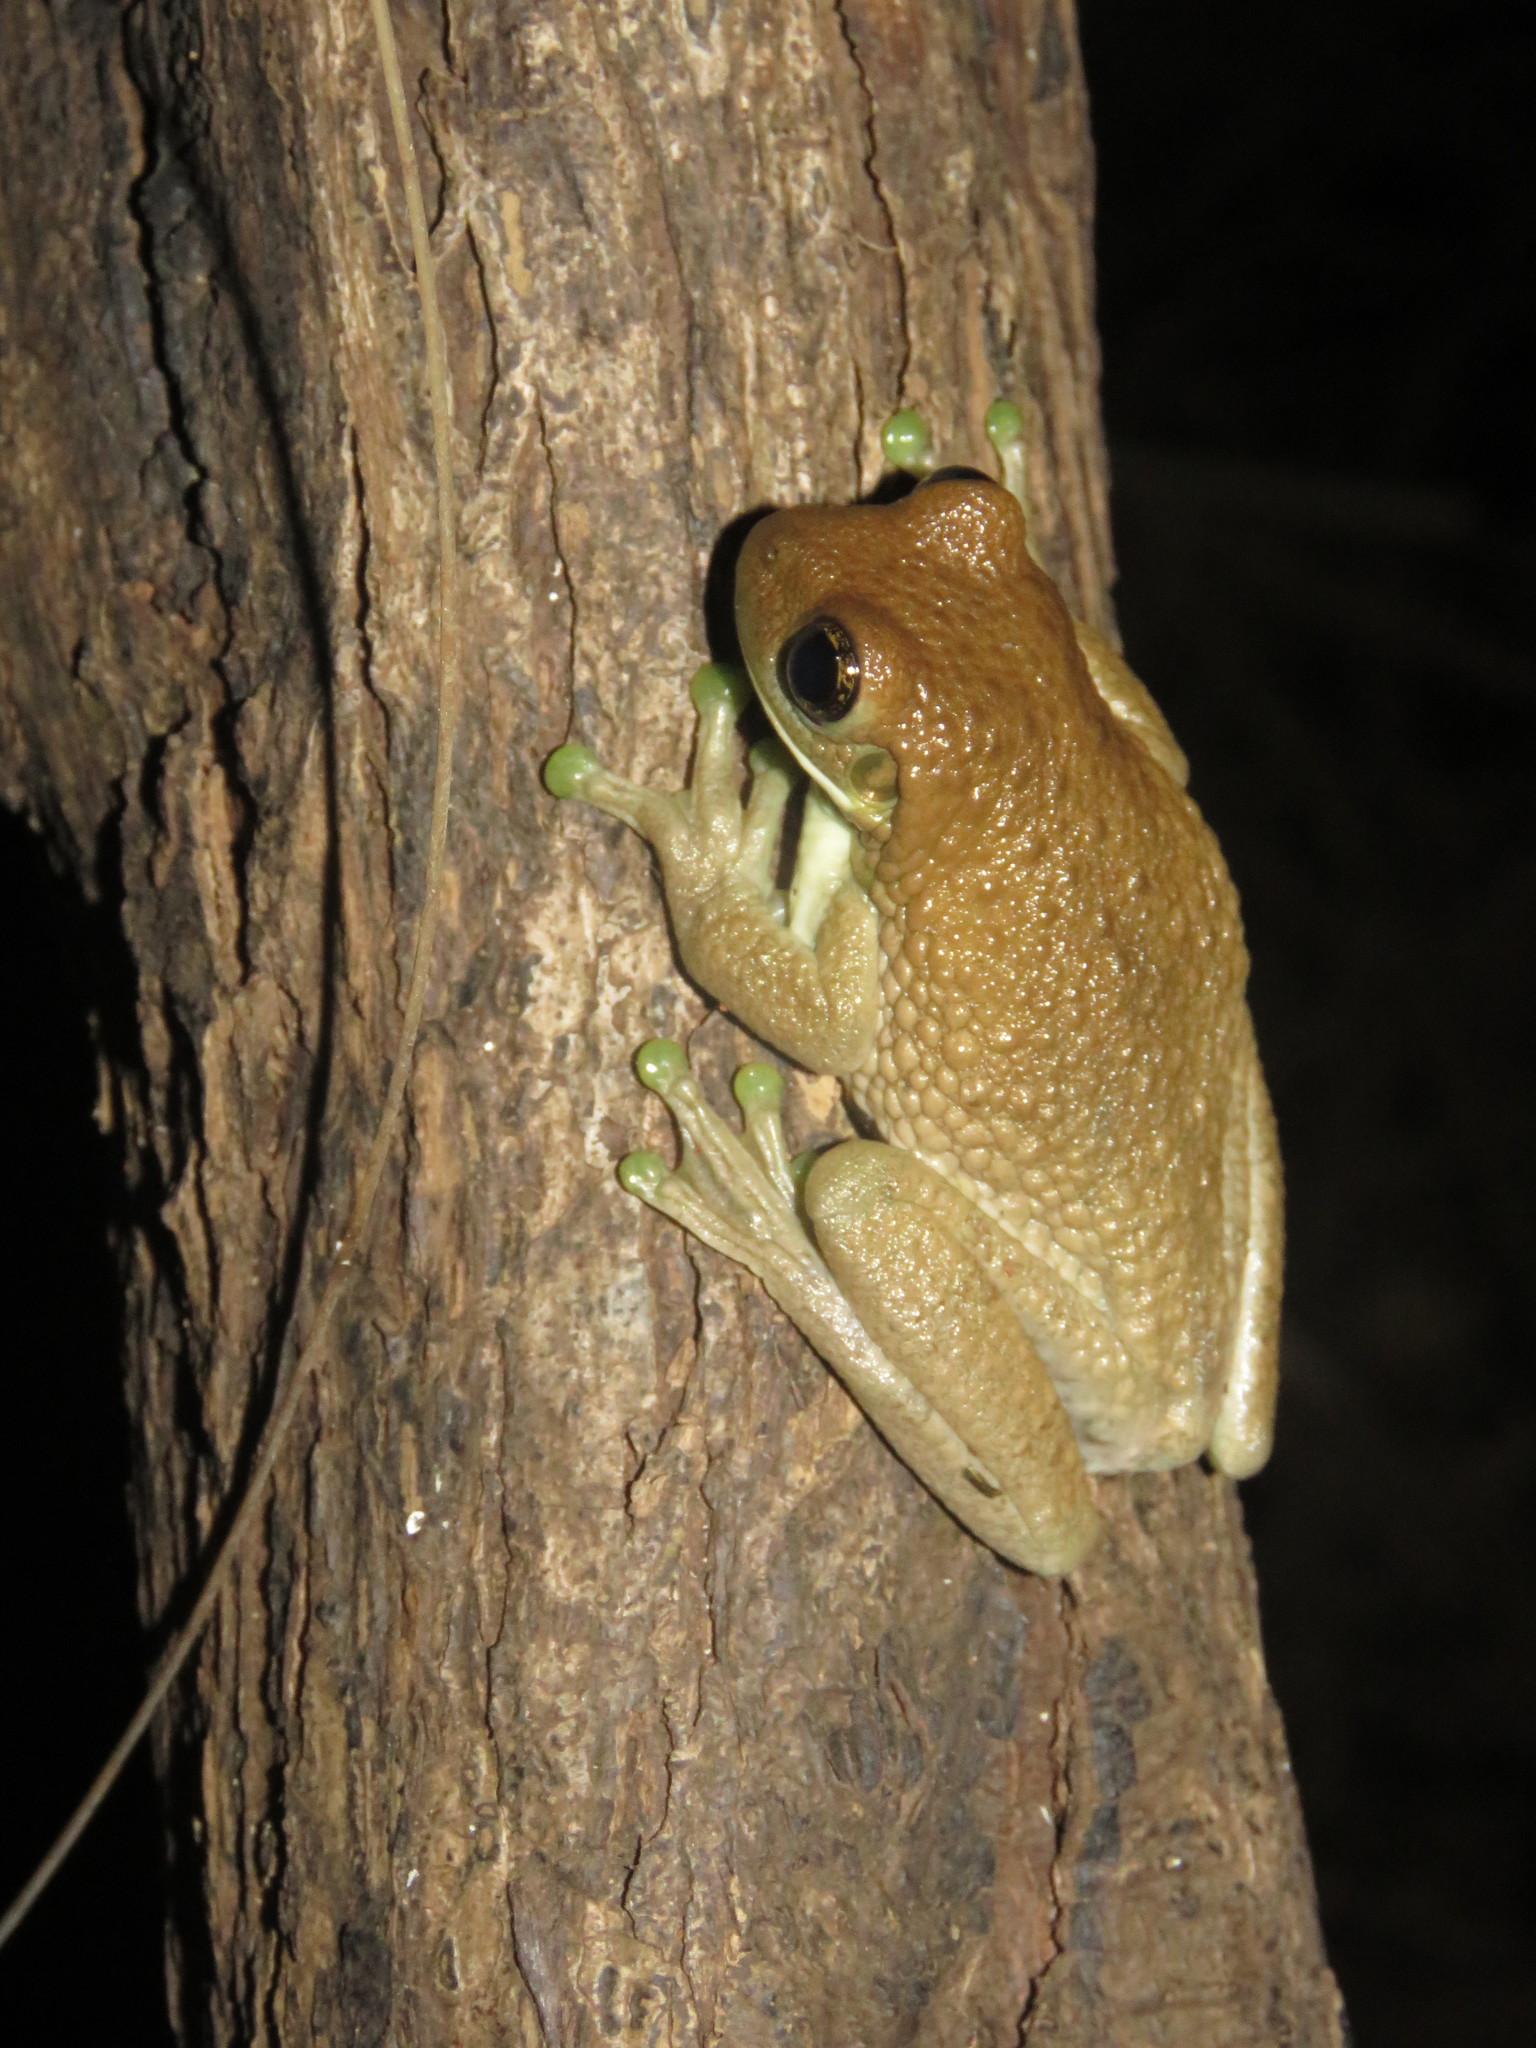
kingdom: Animalia
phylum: Chordata
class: Amphibia
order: Anura
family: Hylidae
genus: Trachycephalus
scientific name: Trachycephalus typhonius
